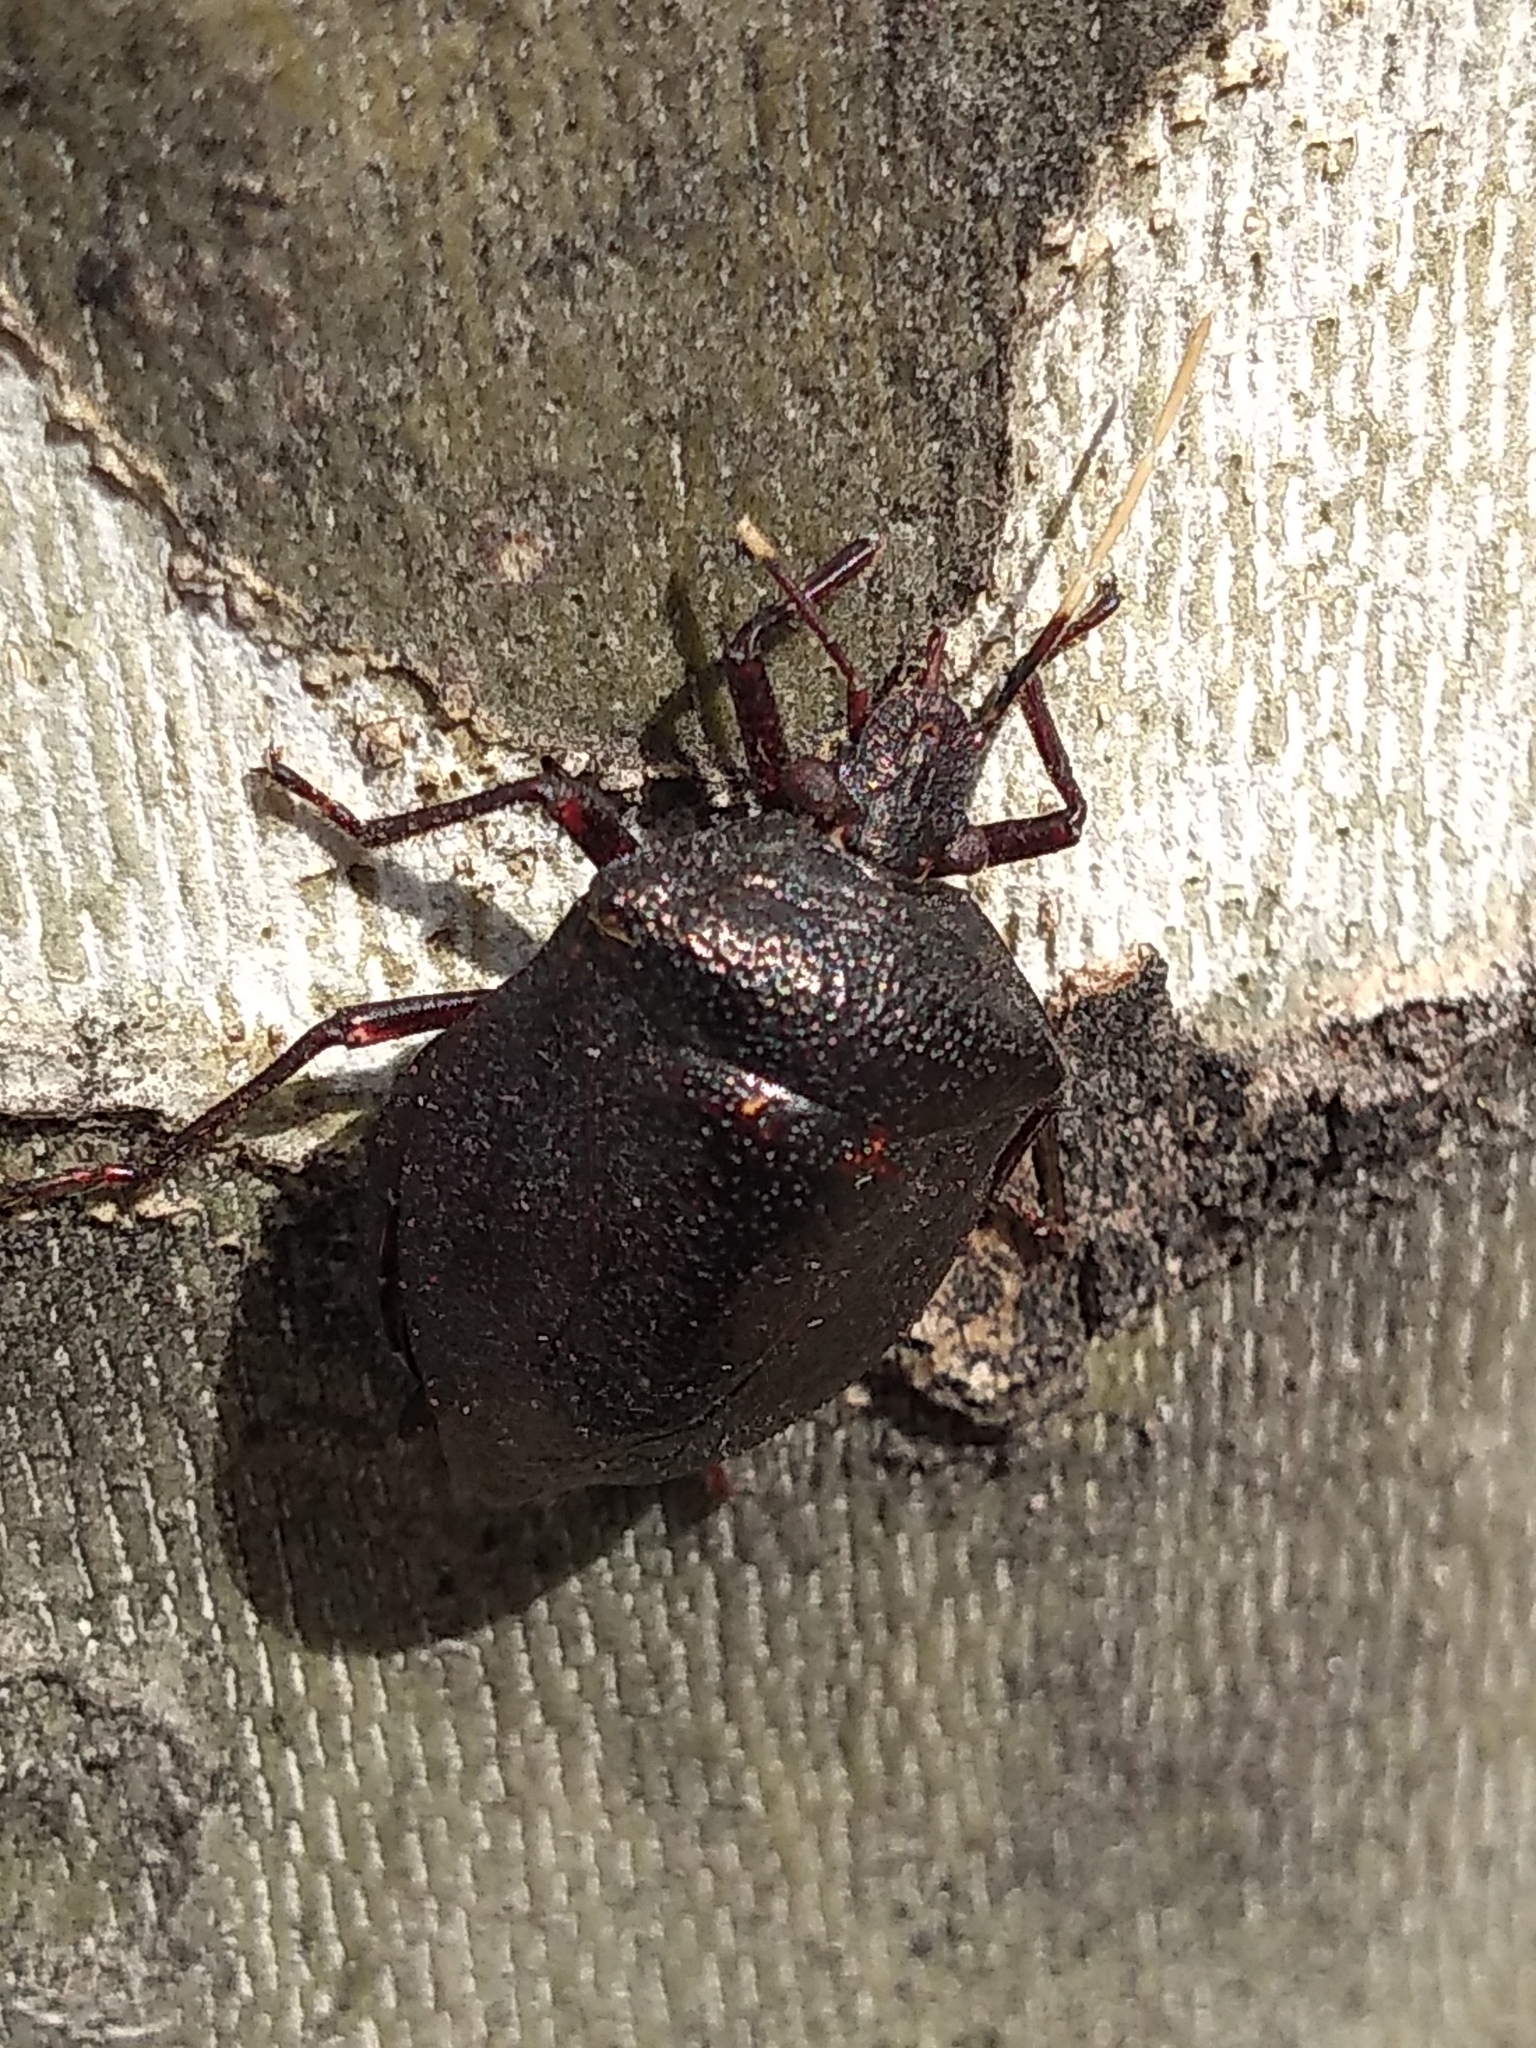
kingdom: Animalia
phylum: Arthropoda
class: Insecta
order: Hemiptera
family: Pentatomidae
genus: Antiteuchus
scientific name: Antiteuchus mixtus
